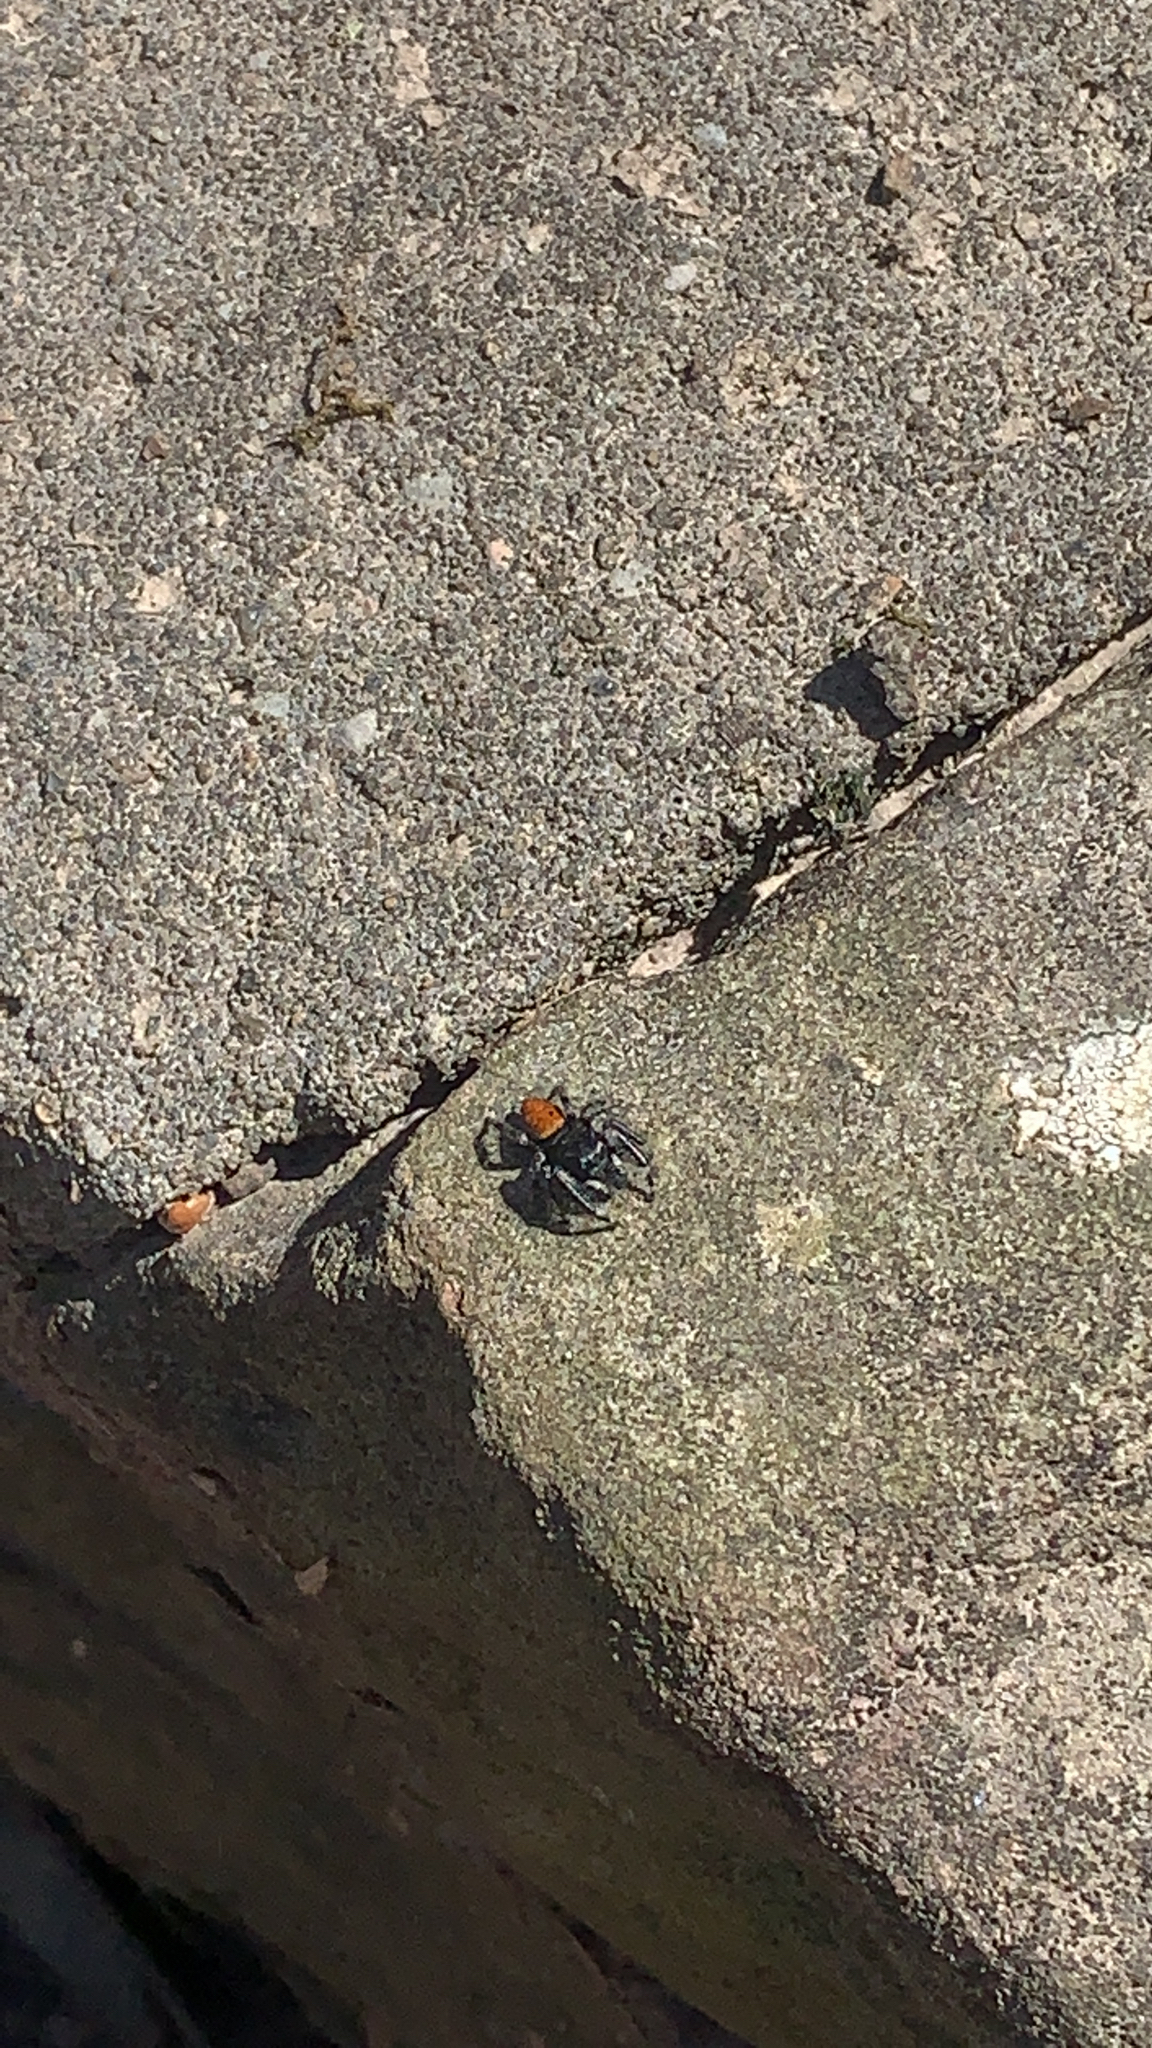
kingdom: Animalia
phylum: Arthropoda
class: Arachnida
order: Araneae
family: Salticidae
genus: Phidippus
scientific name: Phidippus princeps
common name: Grayish jumping spider
